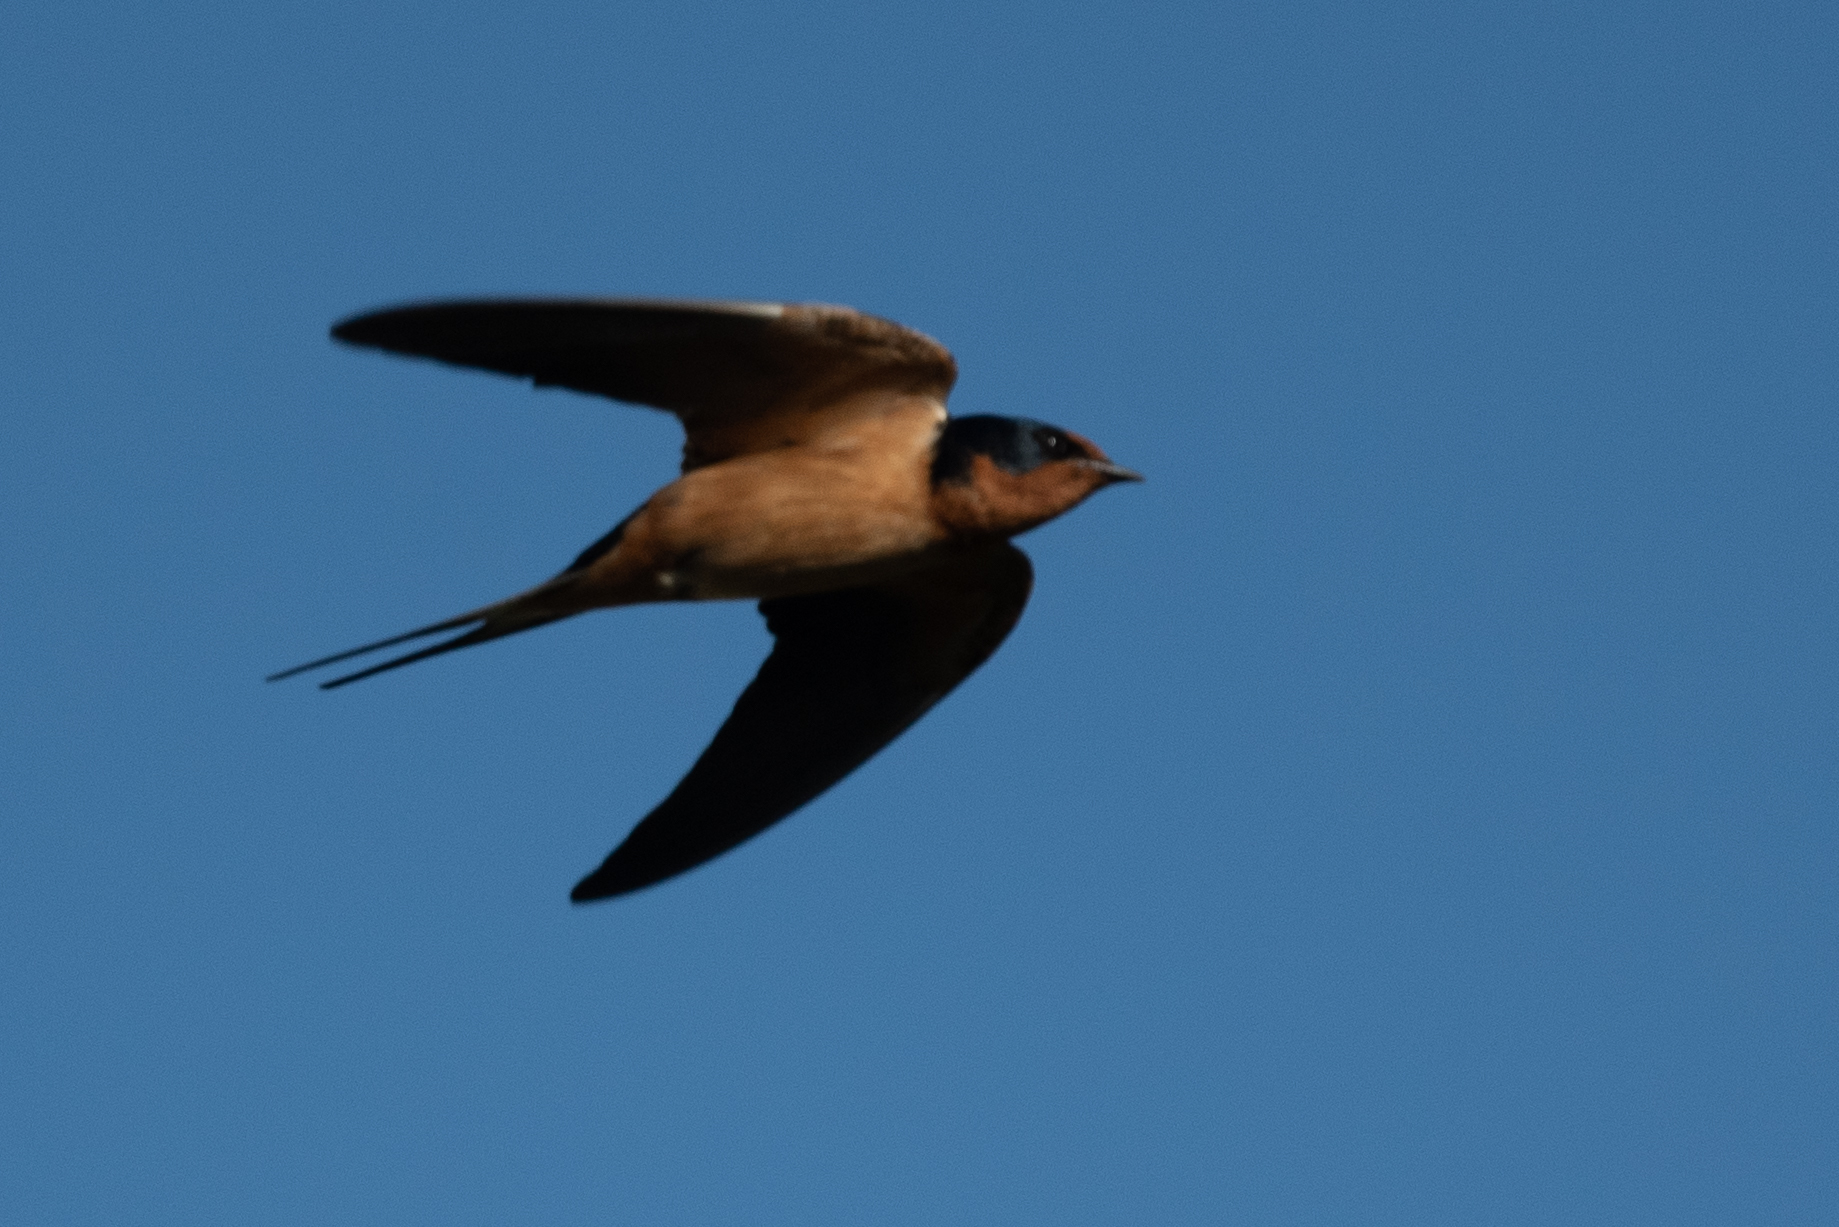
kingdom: Animalia
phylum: Chordata
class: Aves
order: Passeriformes
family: Hirundinidae
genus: Hirundo
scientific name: Hirundo rustica
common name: Barn swallow
